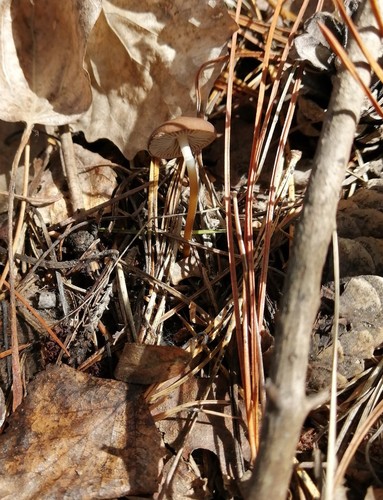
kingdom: Fungi
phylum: Basidiomycota
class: Agaricomycetes
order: Agaricales
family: Physalacriaceae
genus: Strobilurus
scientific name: Strobilurus
